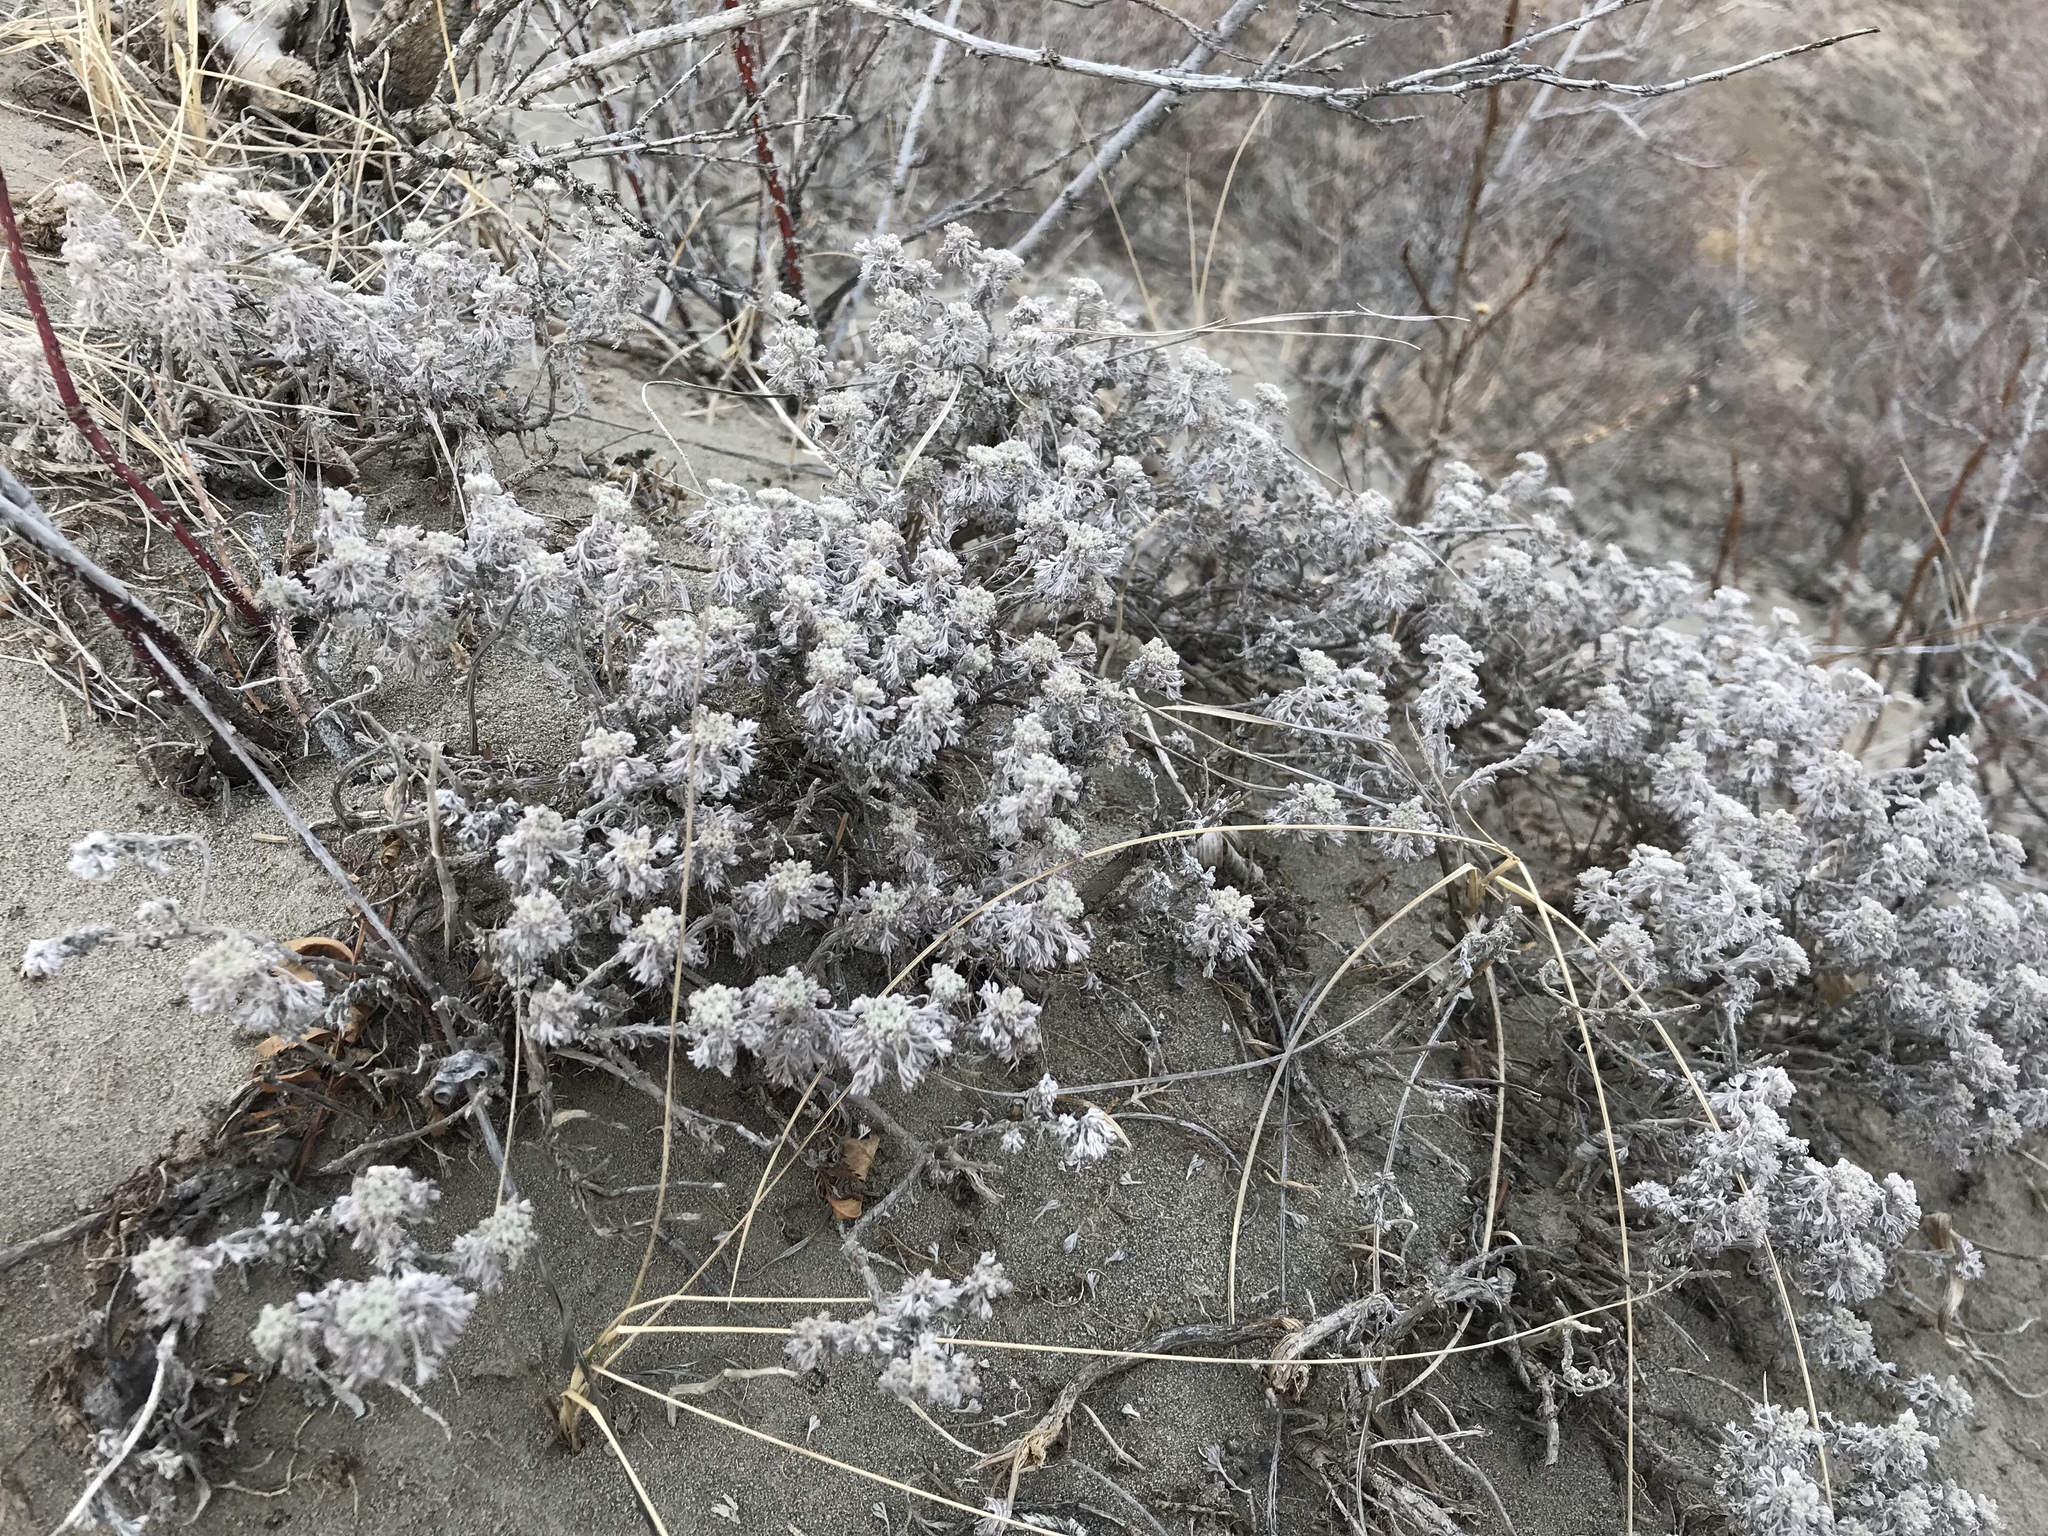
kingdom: Plantae
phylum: Tracheophyta
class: Magnoliopsida
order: Asterales
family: Asteraceae
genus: Artemisia
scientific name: Artemisia frigida
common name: Prairie sagewort
